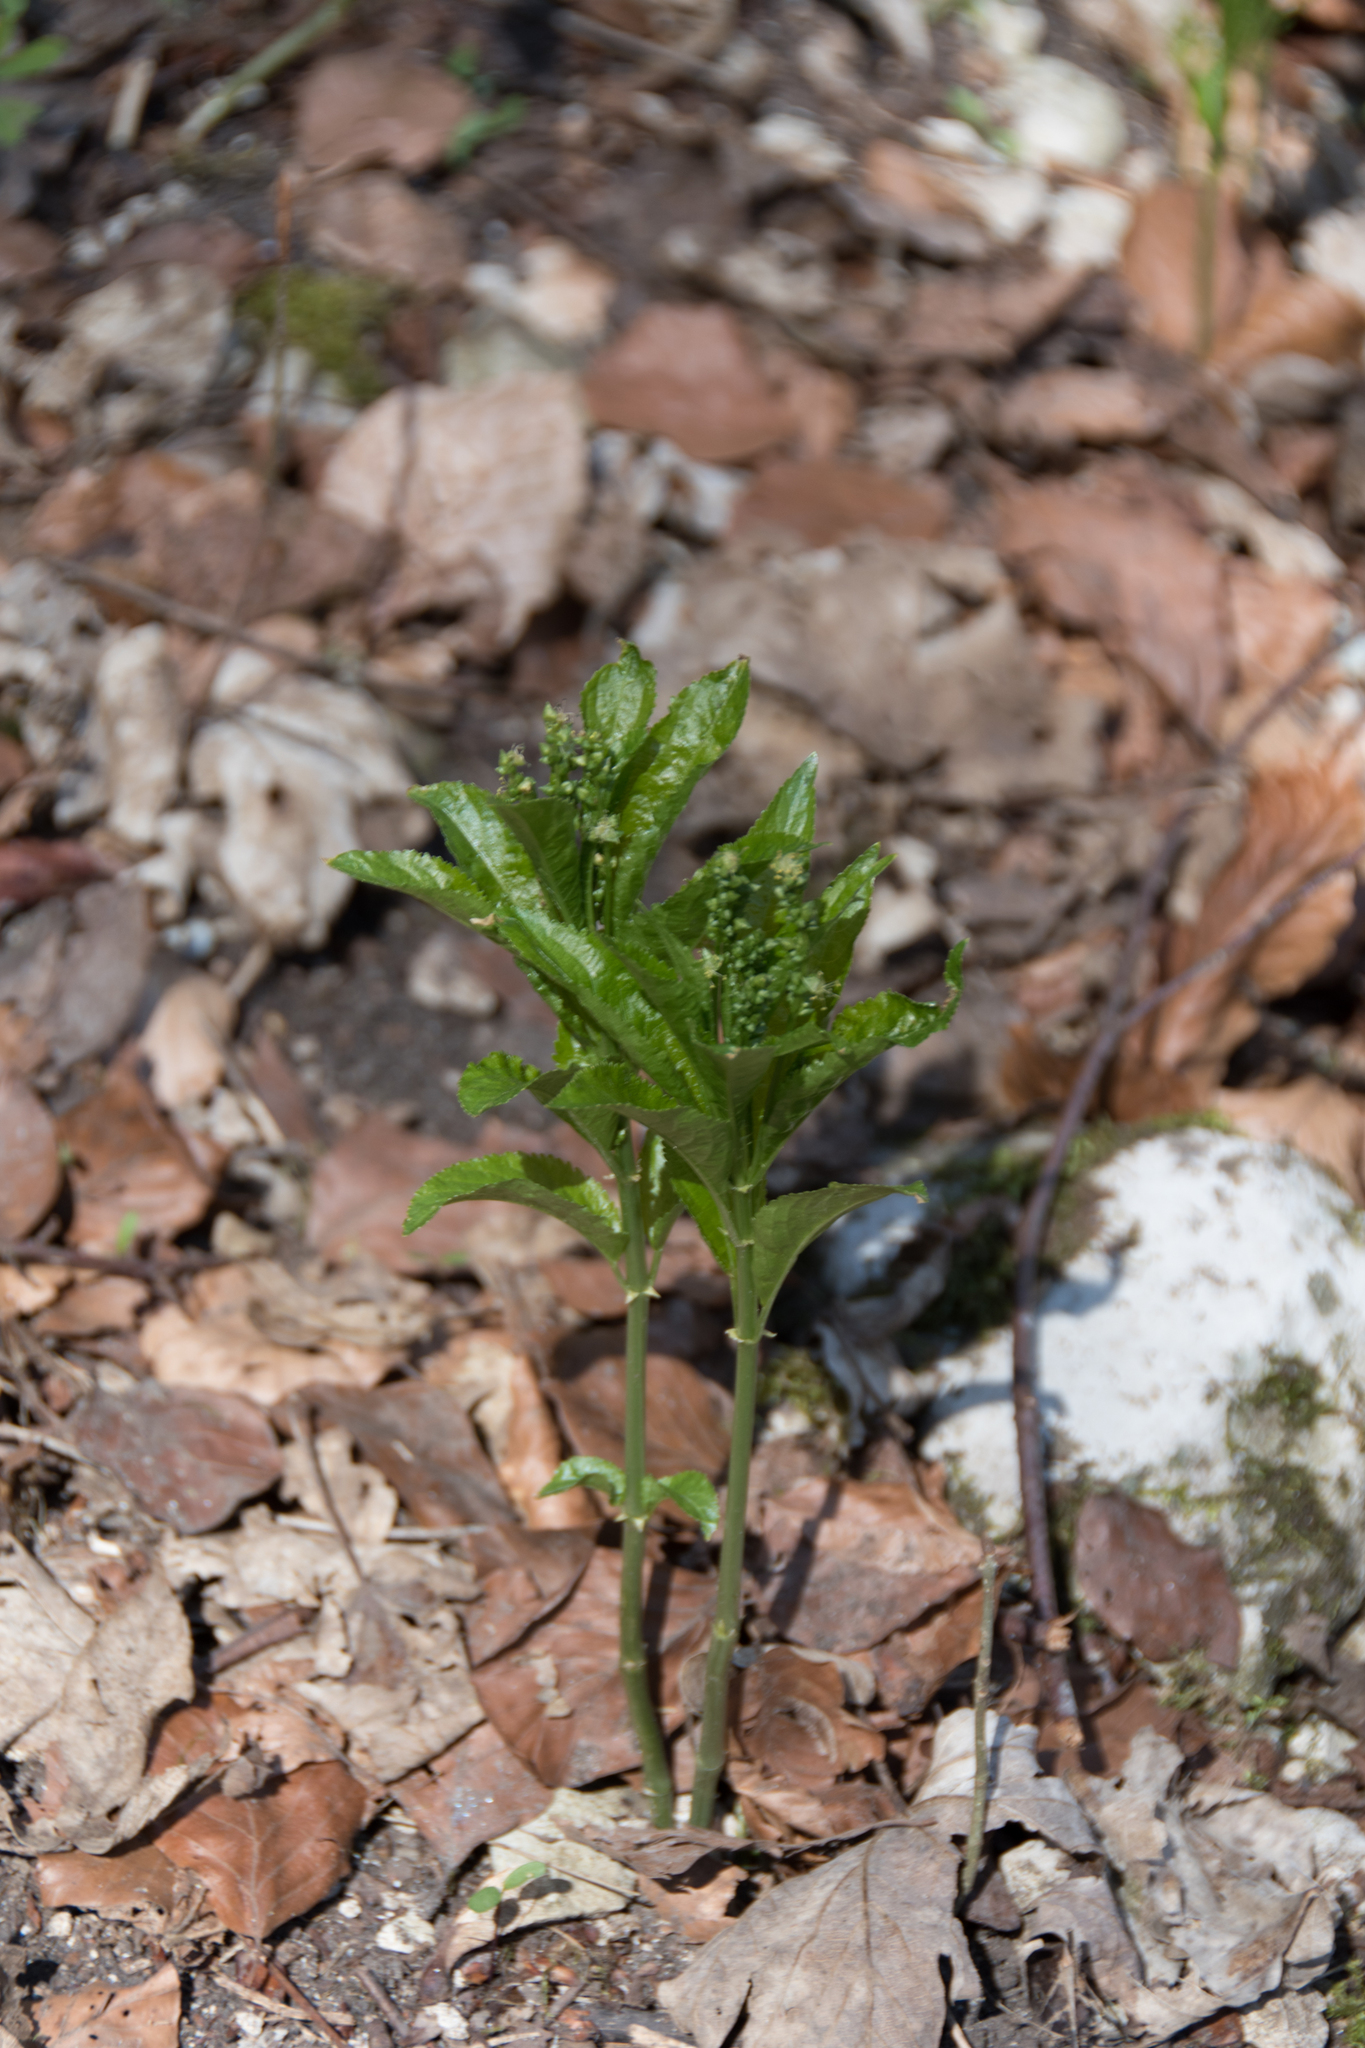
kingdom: Plantae
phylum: Tracheophyta
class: Magnoliopsida
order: Malpighiales
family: Euphorbiaceae
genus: Mercurialis
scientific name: Mercurialis perennis
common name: Dog mercury
